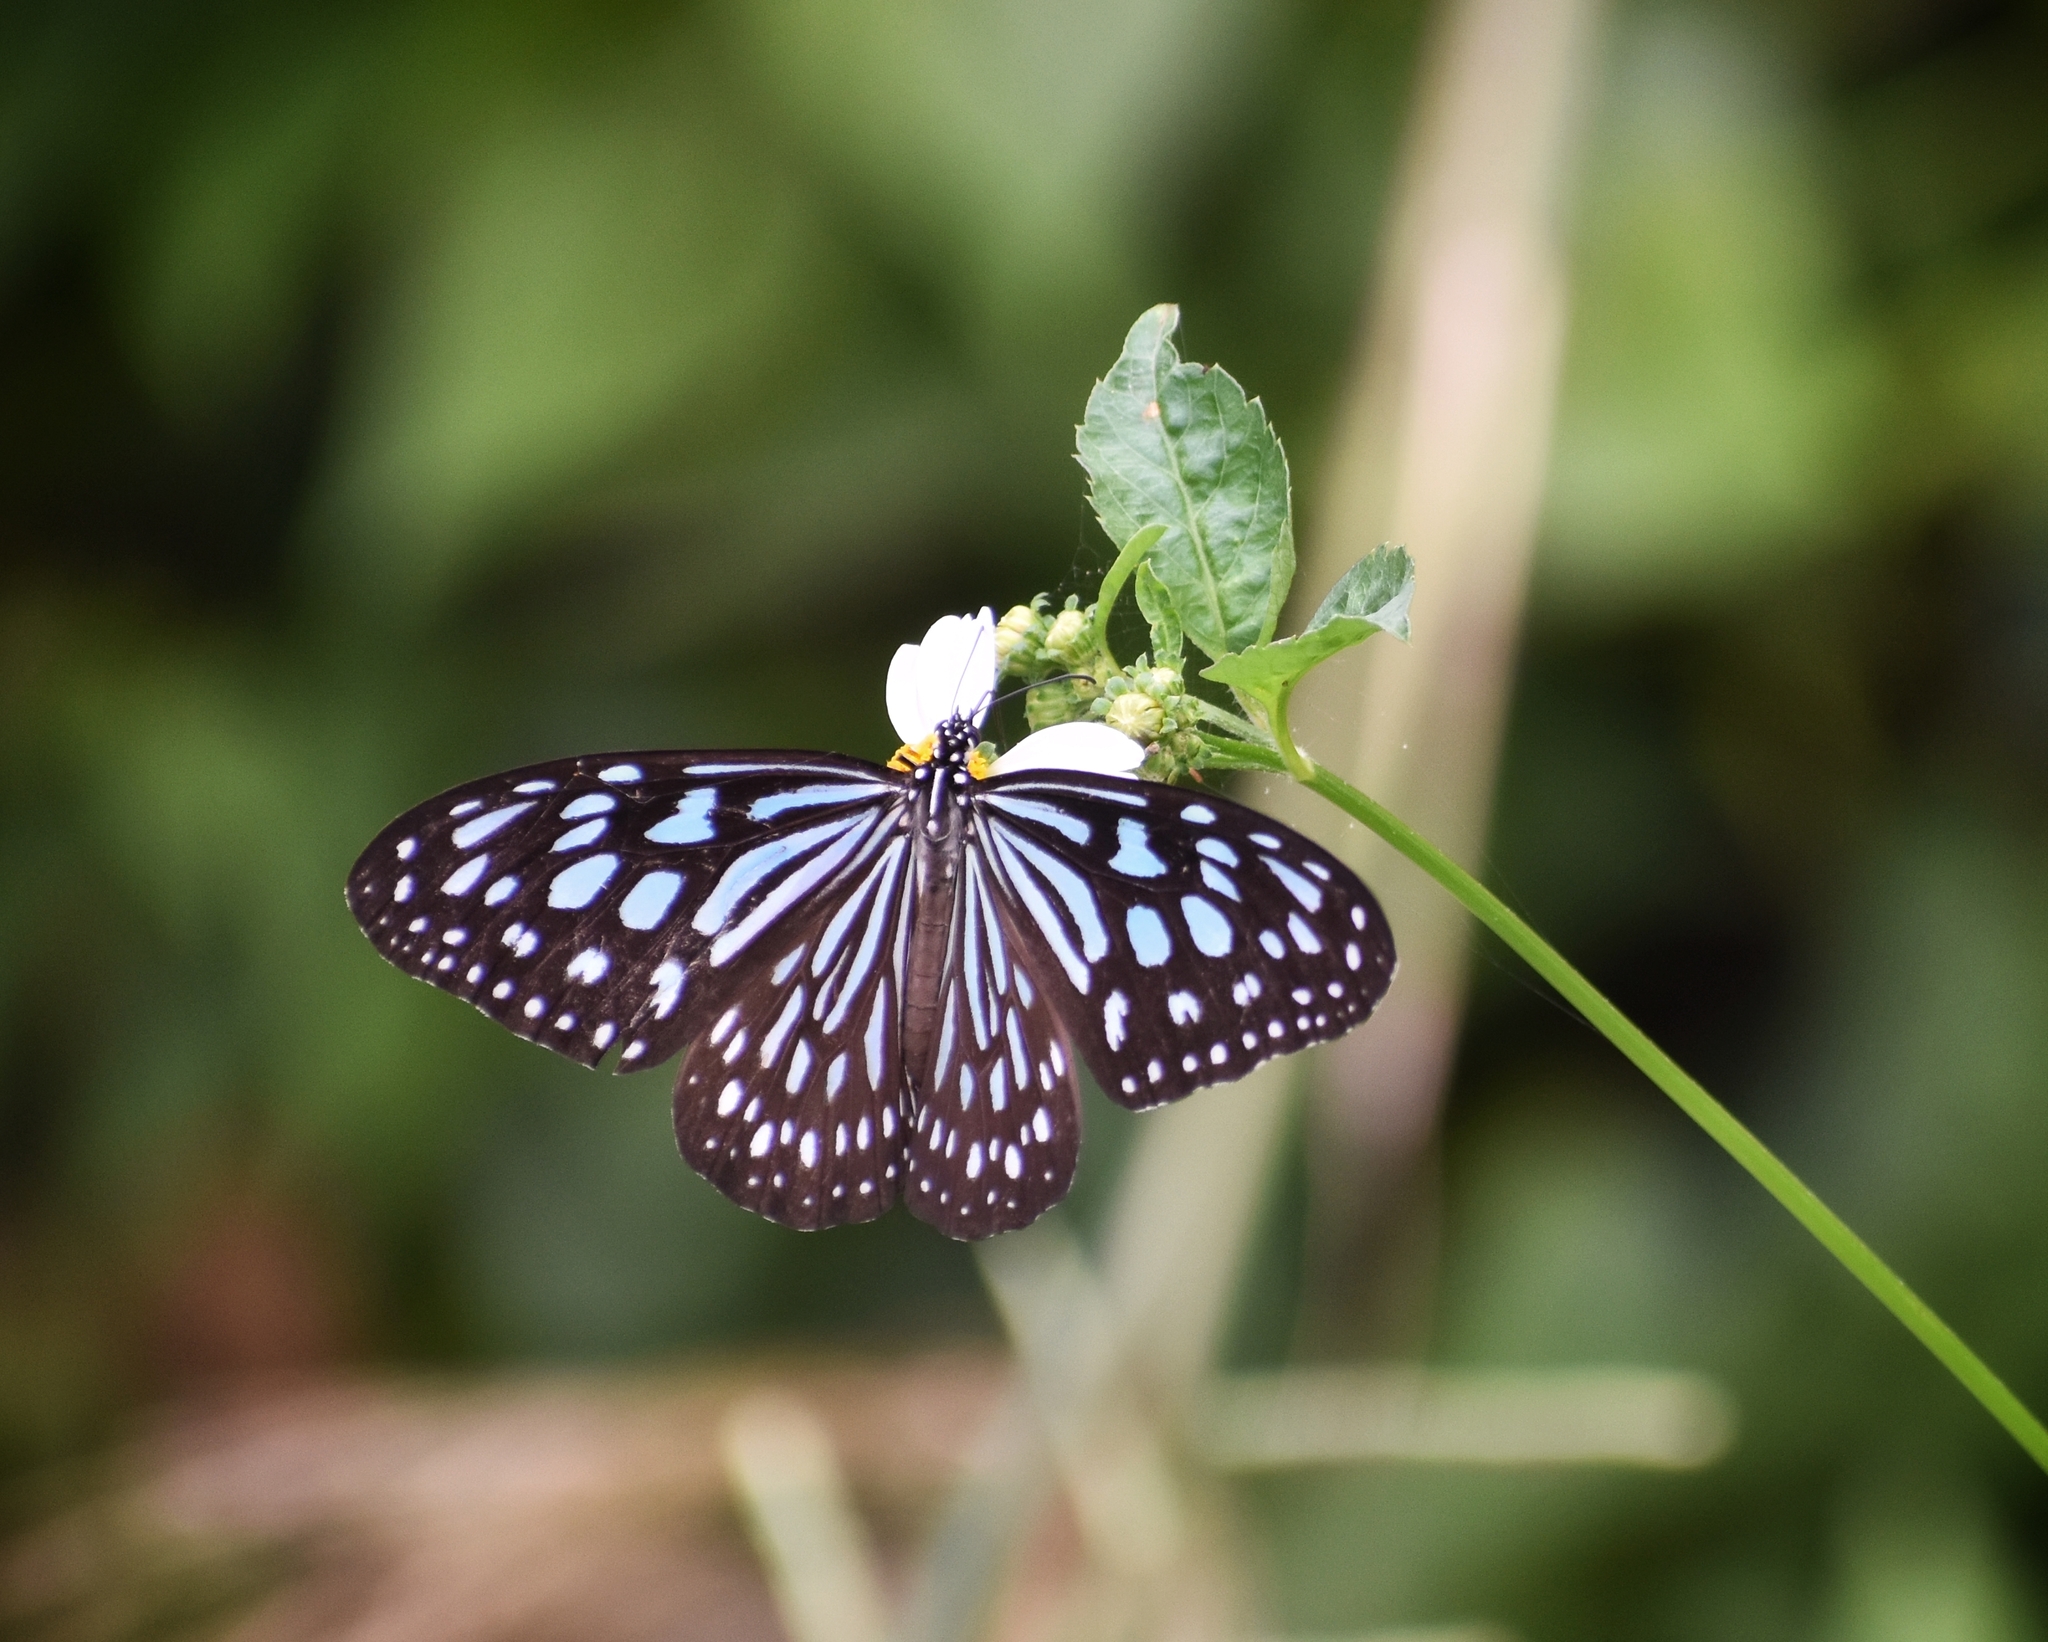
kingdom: Animalia
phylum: Arthropoda
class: Insecta
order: Lepidoptera
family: Nymphalidae
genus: Ideopsis
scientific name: Ideopsis similis
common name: Ceylon blue glassy tiger
